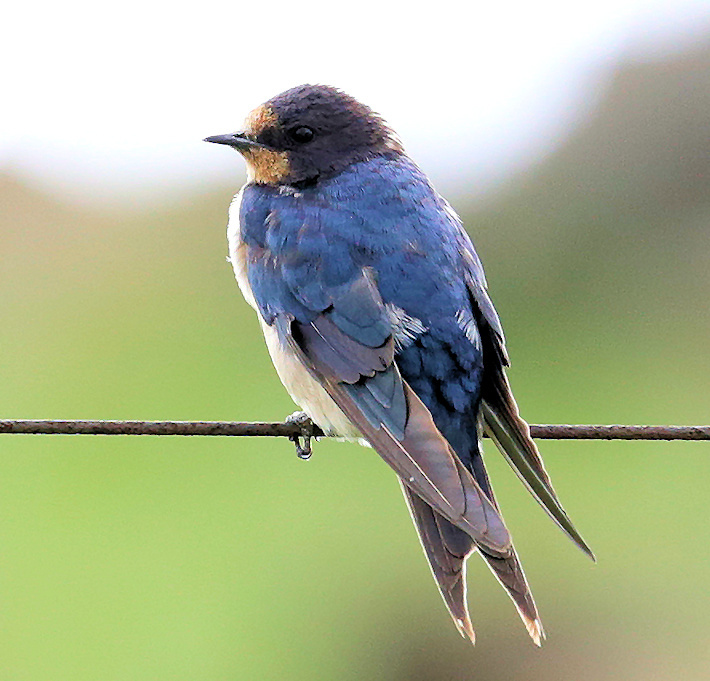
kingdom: Animalia
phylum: Chordata
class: Aves
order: Passeriformes
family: Hirundinidae
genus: Hirundo
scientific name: Hirundo rustica
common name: Barn swallow
